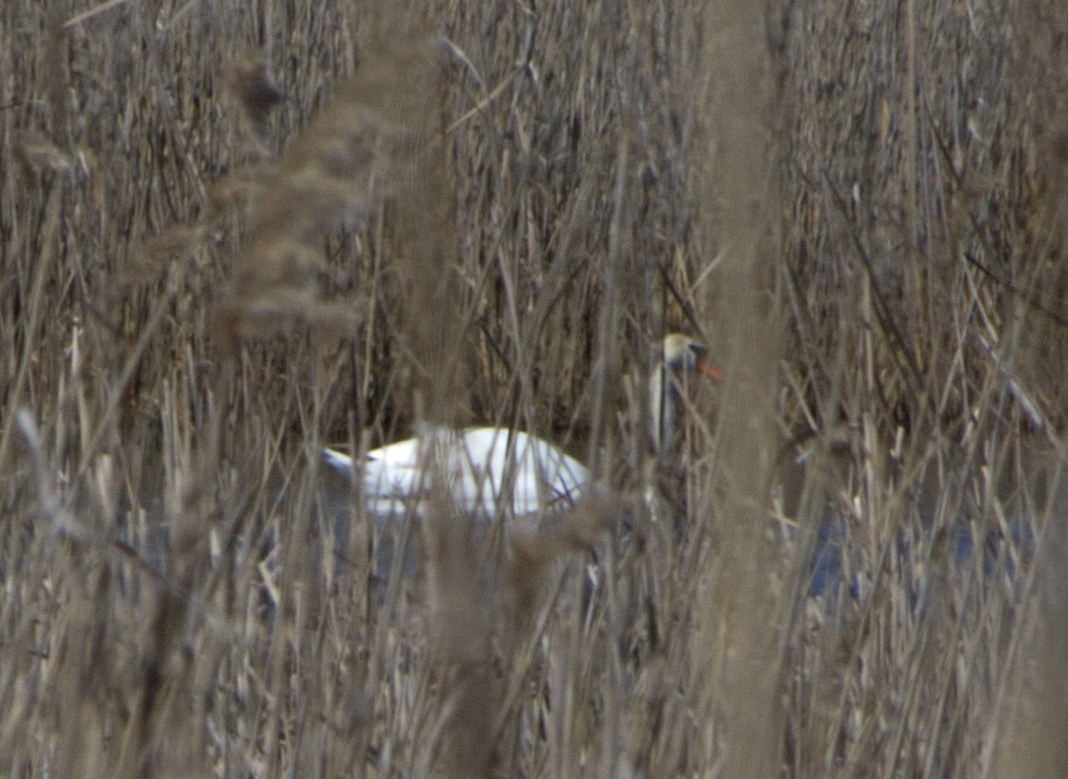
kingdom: Animalia
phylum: Chordata
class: Aves
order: Anseriformes
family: Anatidae
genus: Cygnus
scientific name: Cygnus olor
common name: Mute swan
